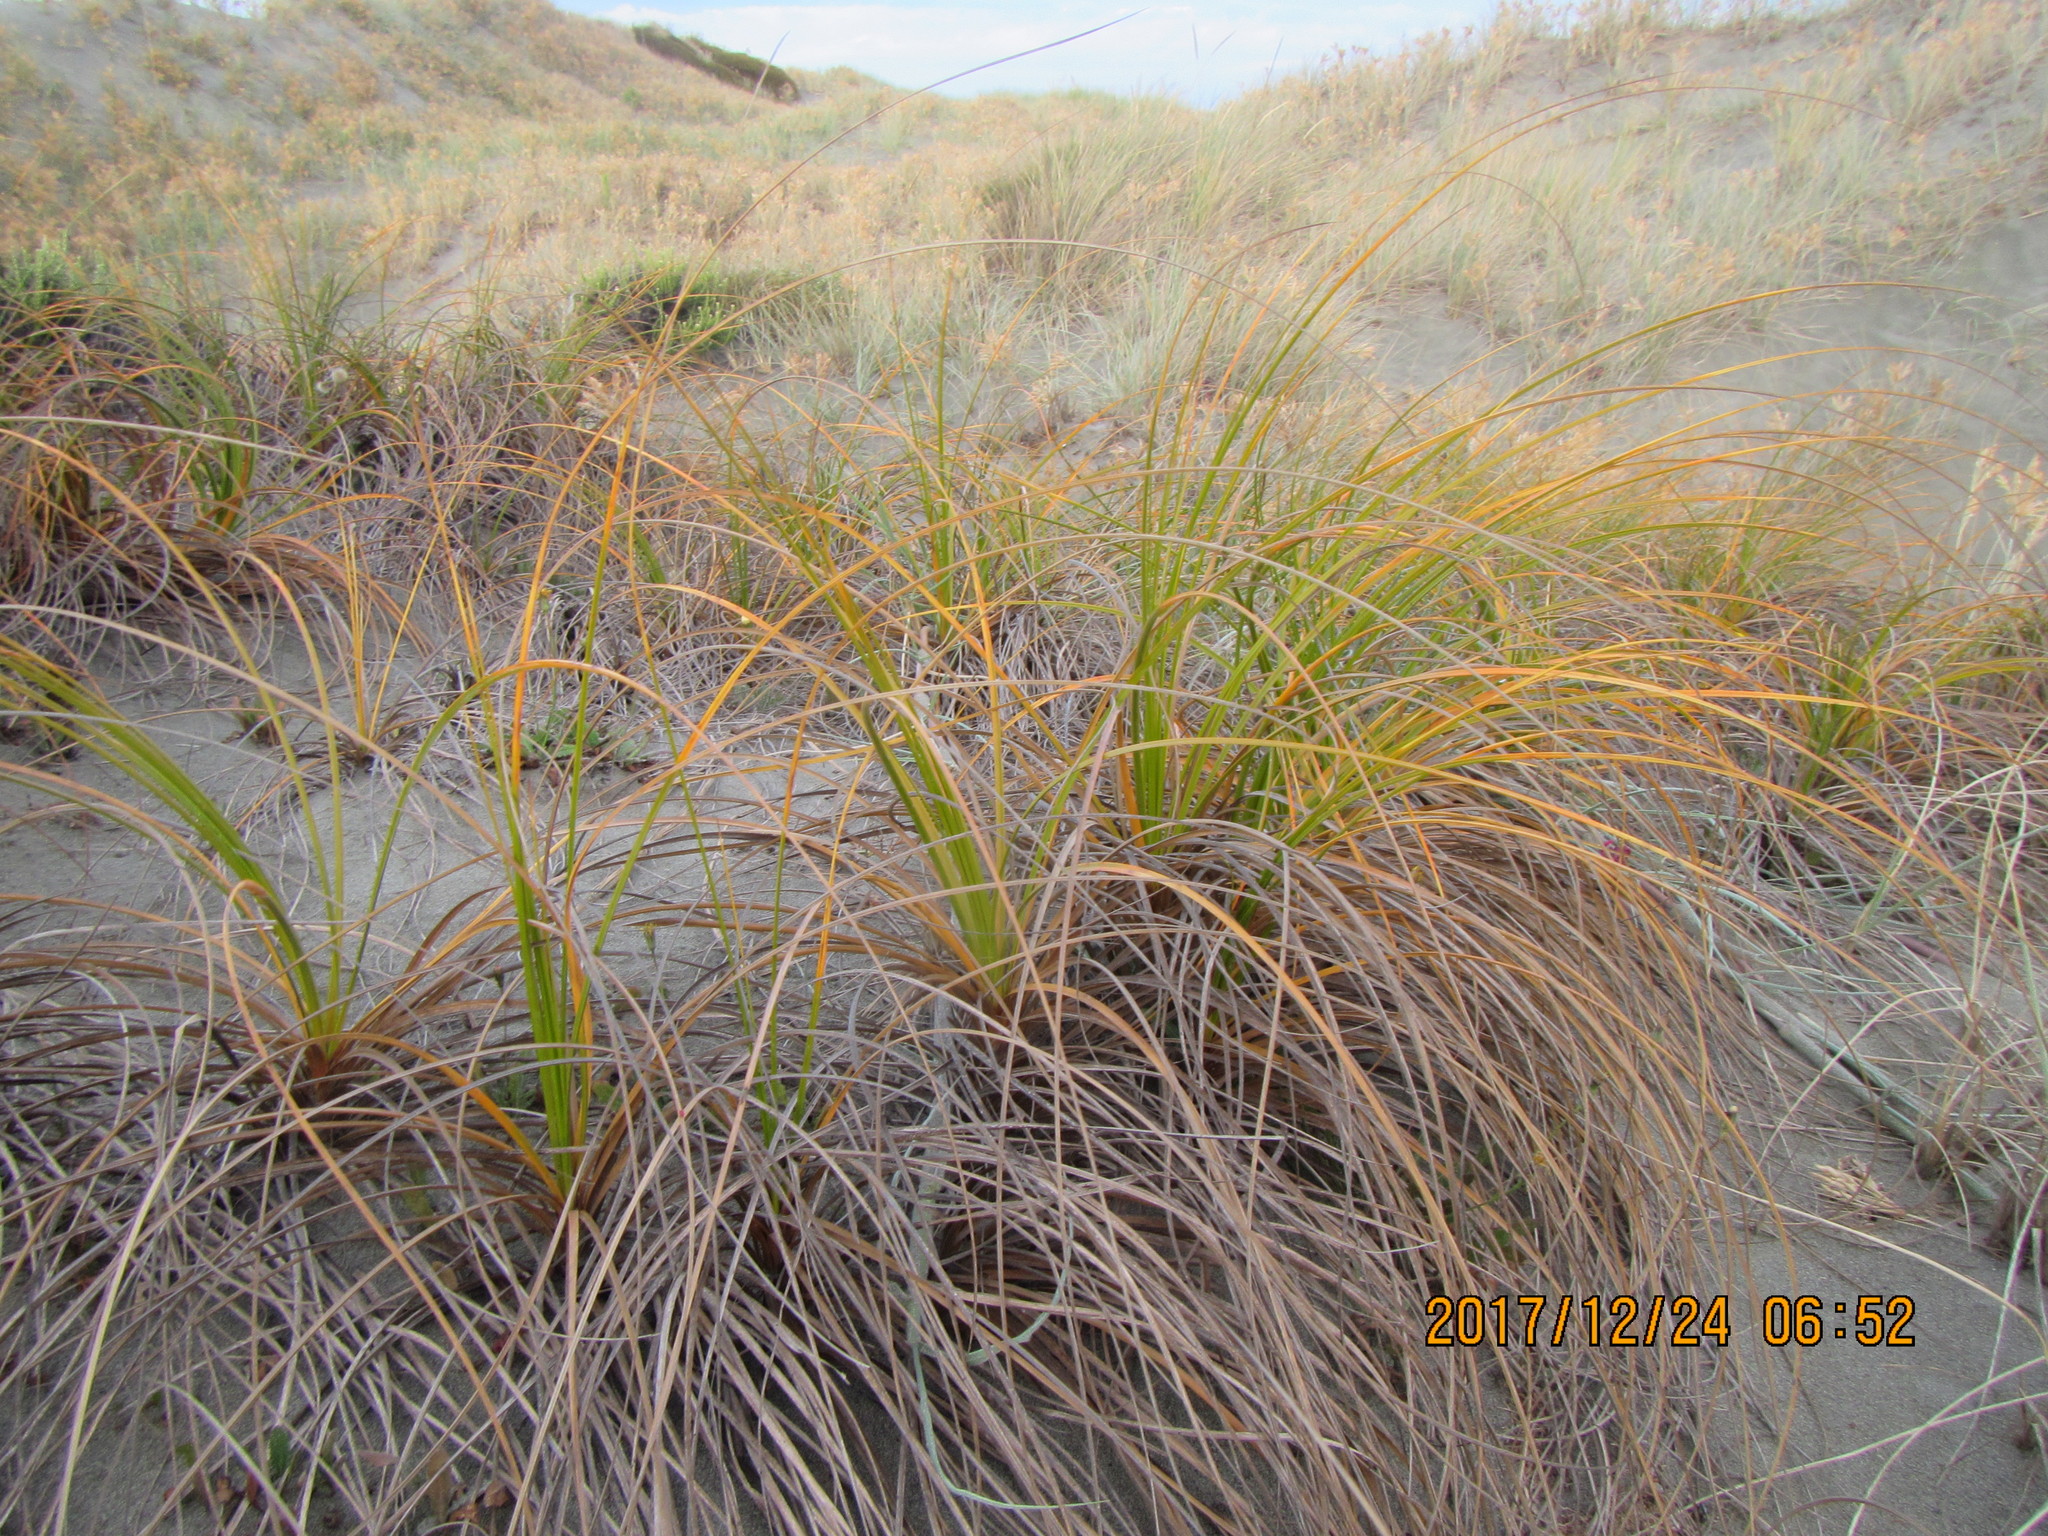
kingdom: Plantae
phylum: Tracheophyta
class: Liliopsida
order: Poales
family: Cyperaceae
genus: Ficinia
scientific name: Ficinia spiralis
